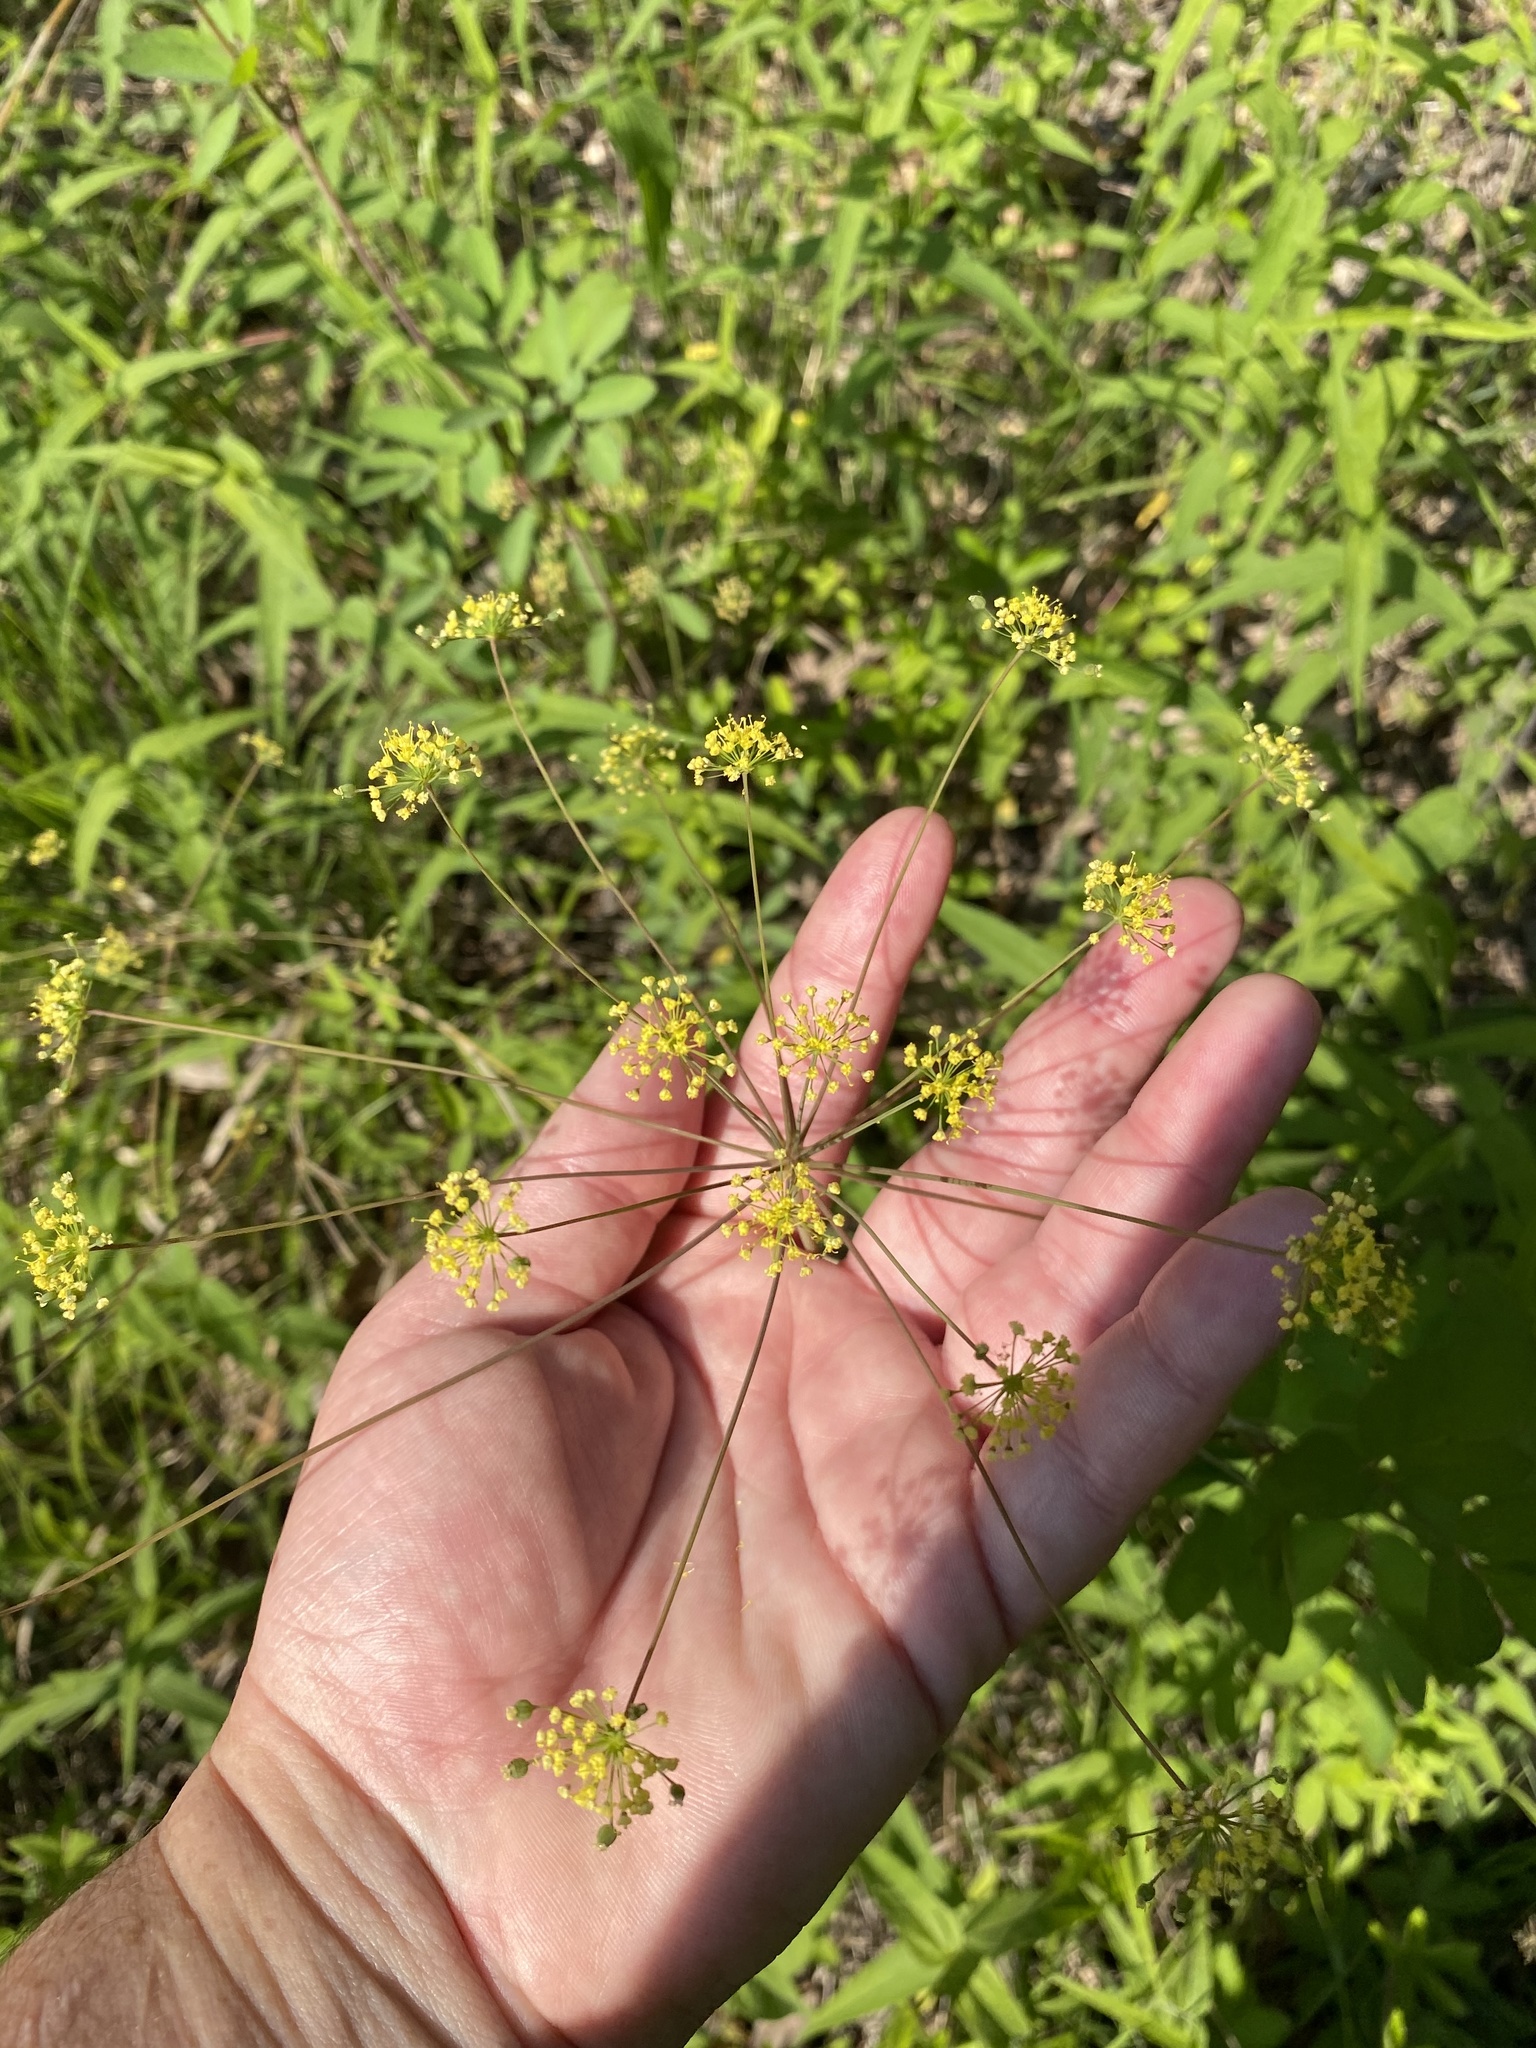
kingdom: Plantae
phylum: Tracheophyta
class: Magnoliopsida
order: Apiales
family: Apiaceae
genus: Taenidia
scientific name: Taenidia integerrima
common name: Golden alexander
